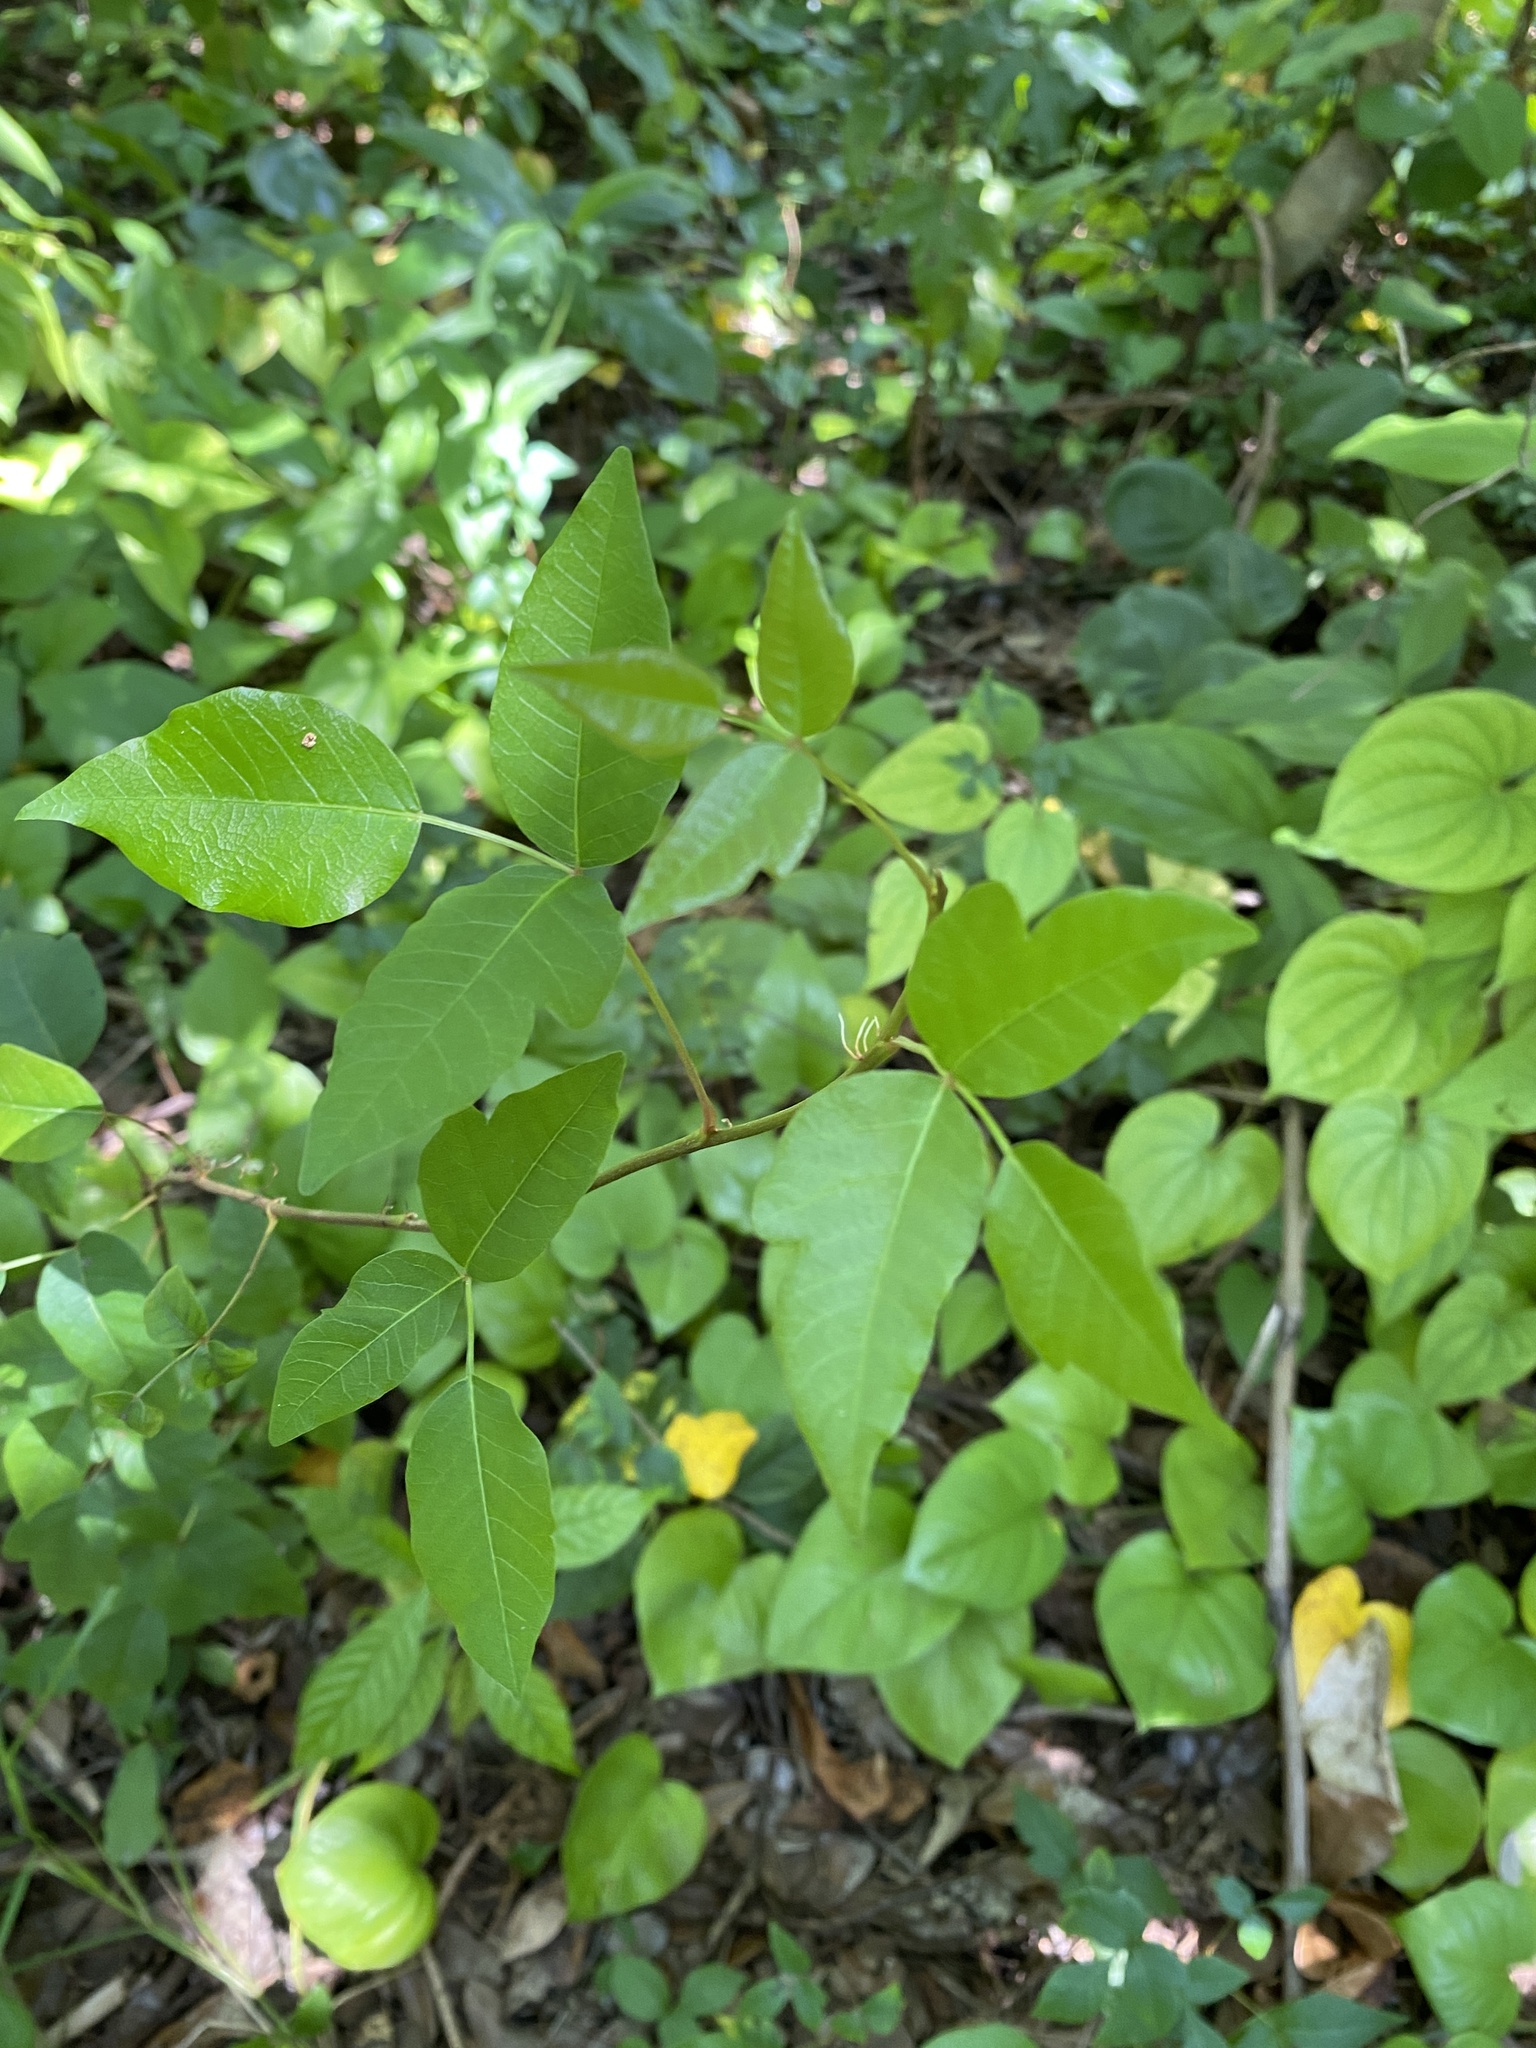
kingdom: Plantae
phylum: Tracheophyta
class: Magnoliopsida
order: Sapindales
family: Anacardiaceae
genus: Toxicodendron
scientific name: Toxicodendron radicans
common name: Poison ivy
